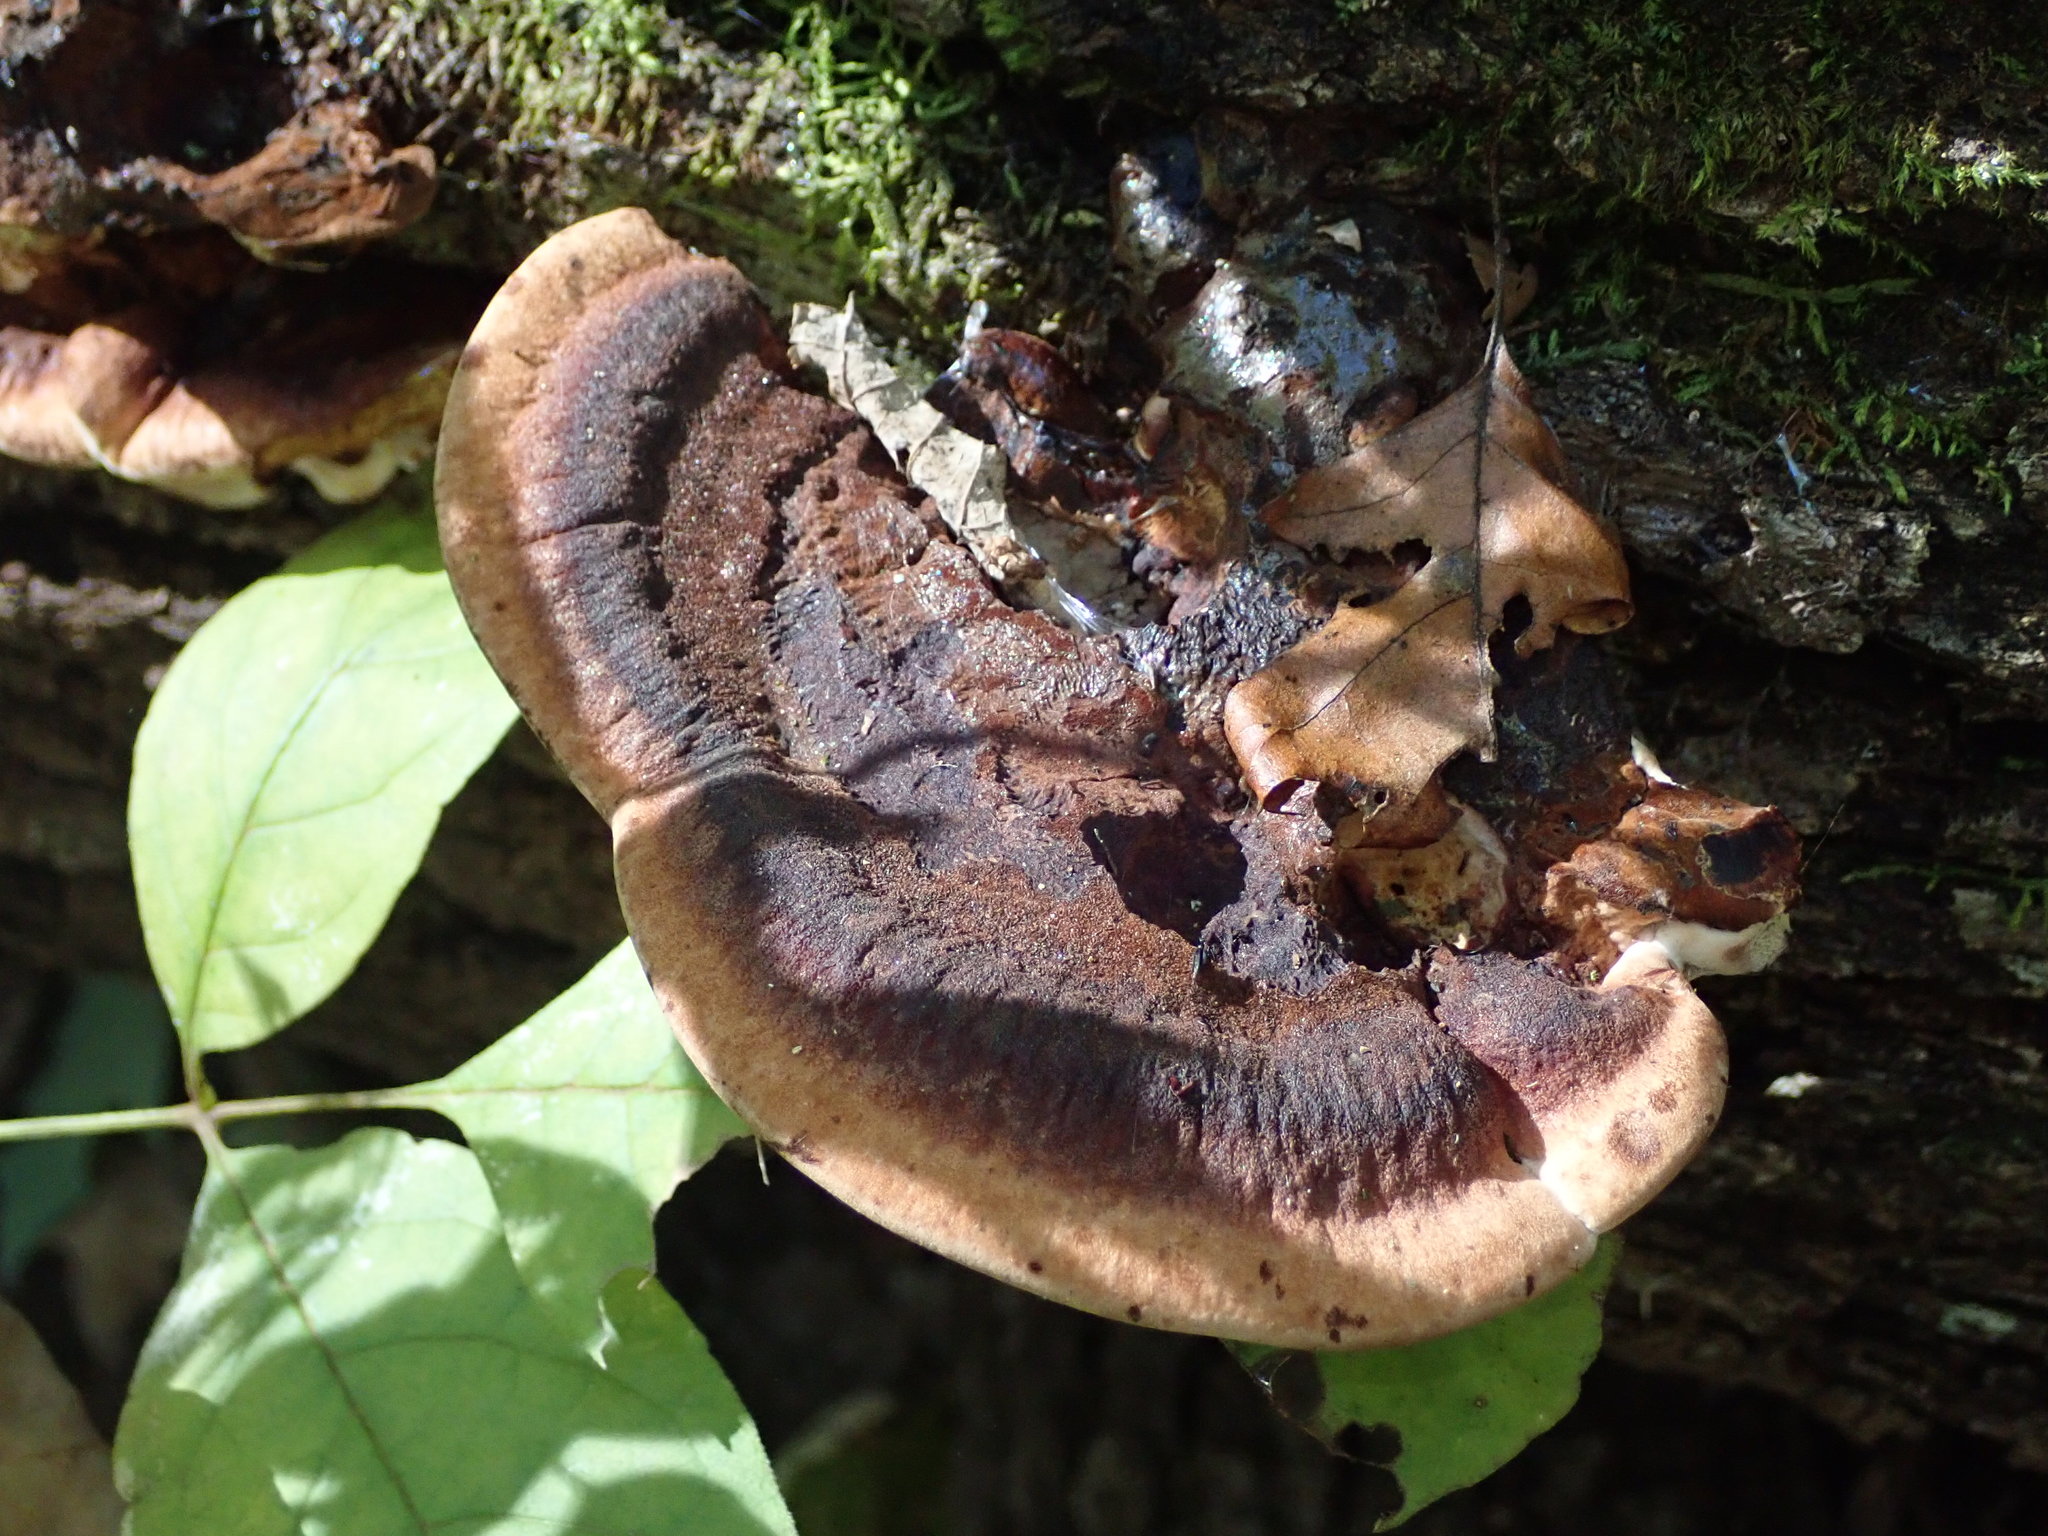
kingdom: Fungi
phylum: Basidiomycota
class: Agaricomycetes
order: Polyporales
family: Ischnodermataceae
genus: Ischnoderma
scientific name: Ischnoderma resinosum
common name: Resinous polypore
